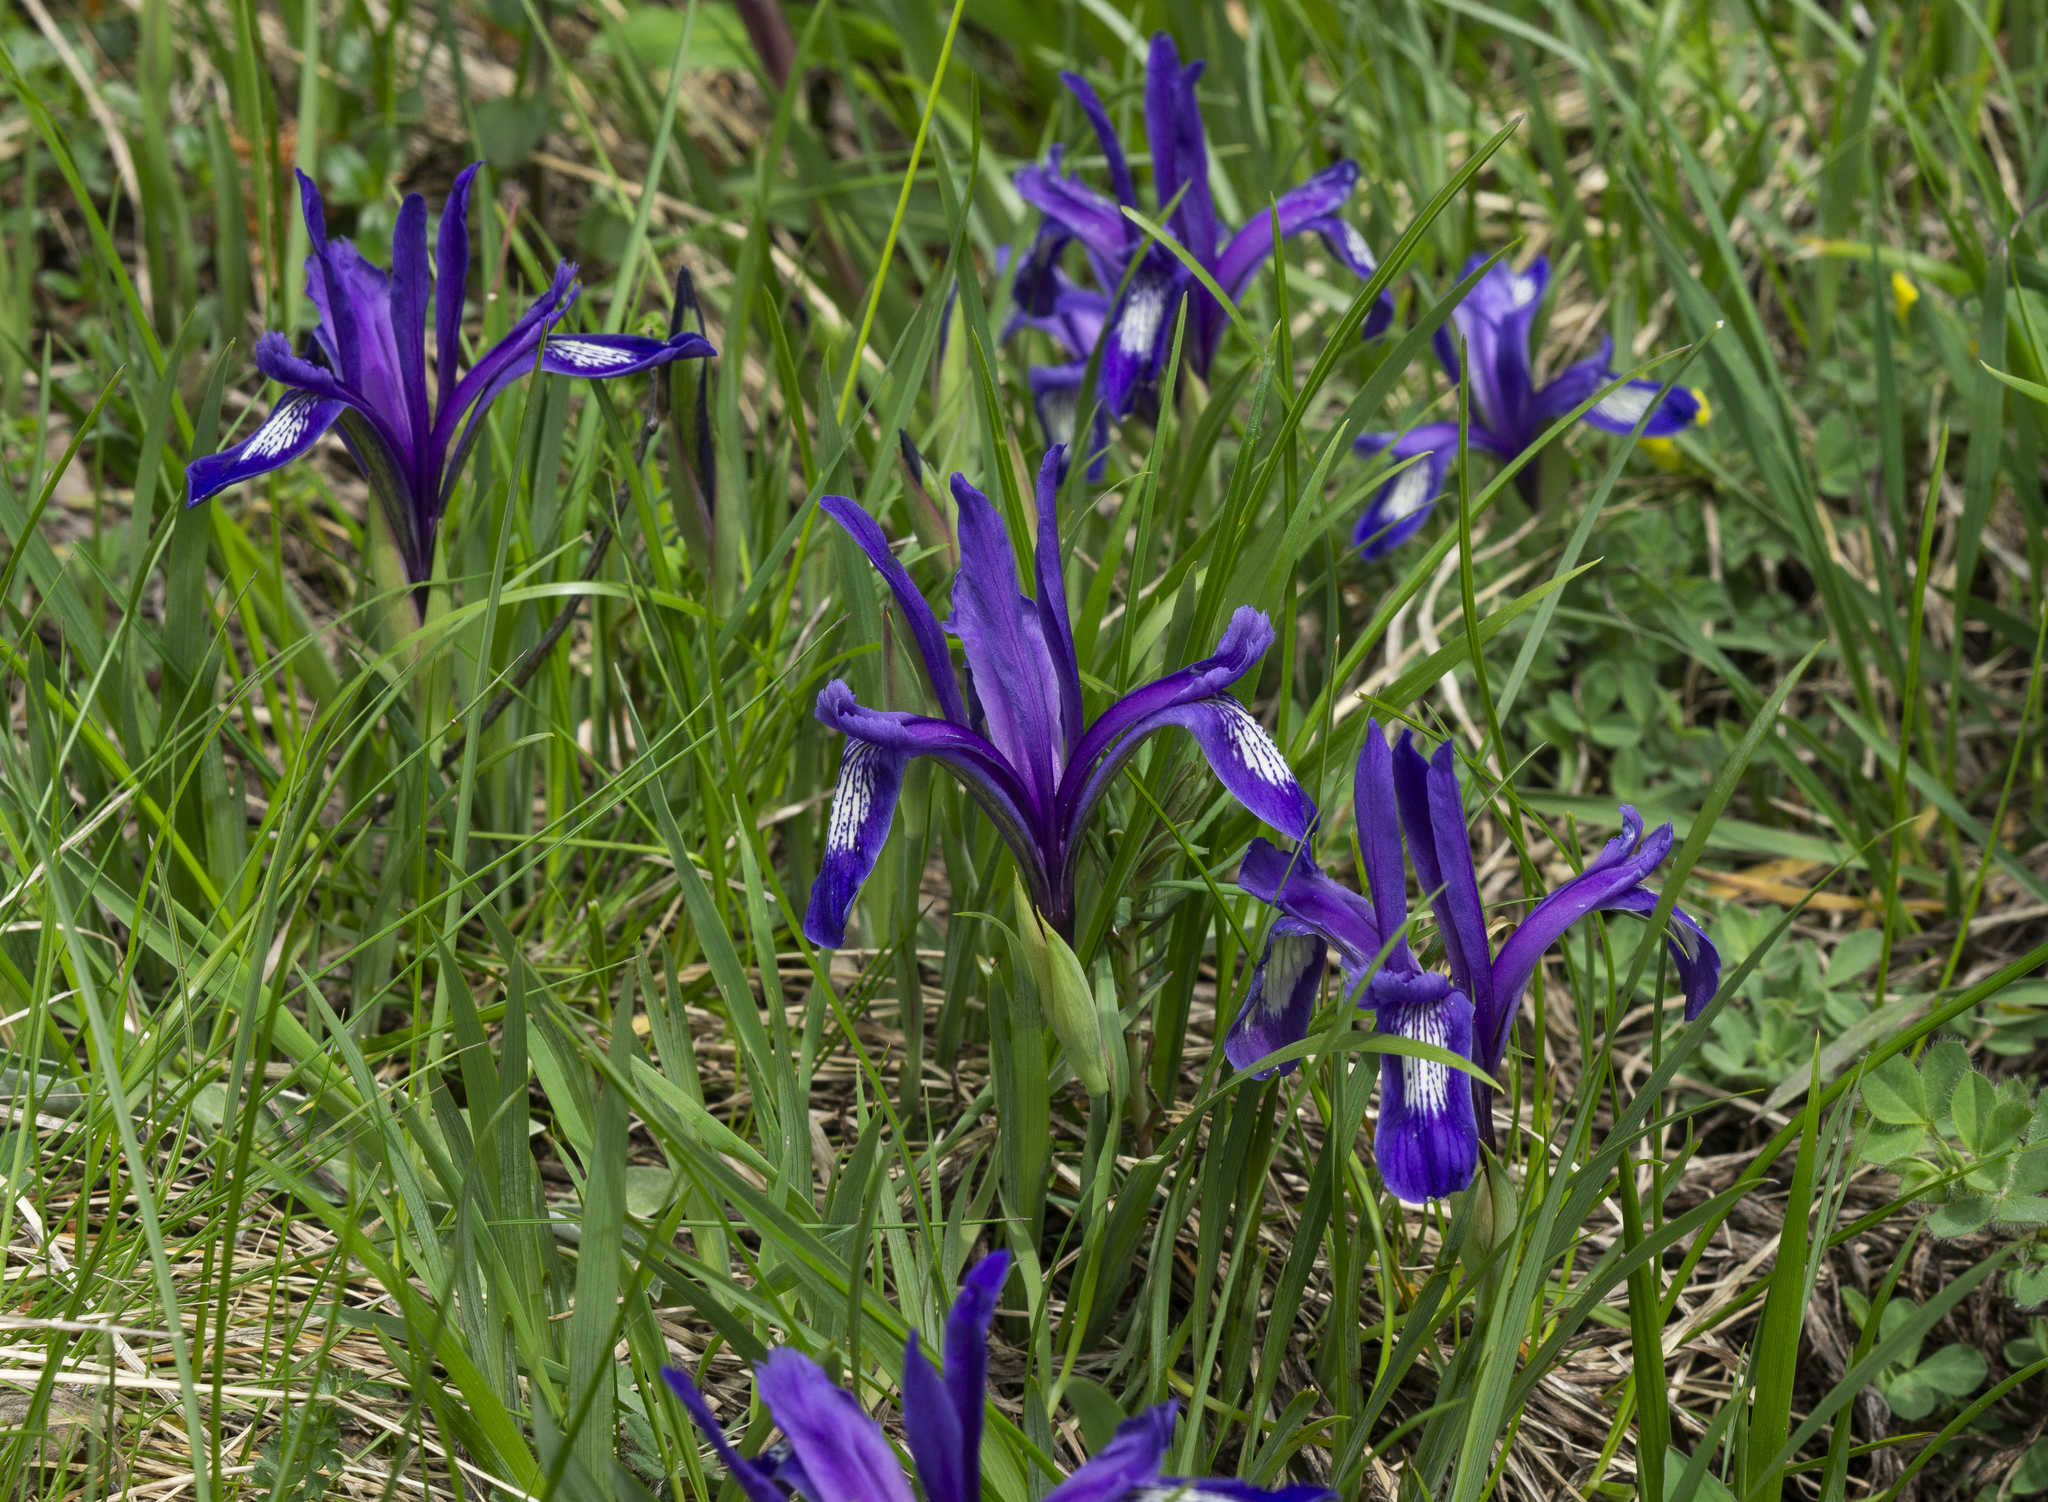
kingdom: Plantae
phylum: Tracheophyta
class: Liliopsida
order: Asparagales
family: Iridaceae
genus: Iris
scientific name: Iris ruthenica
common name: Purple-bract iris
